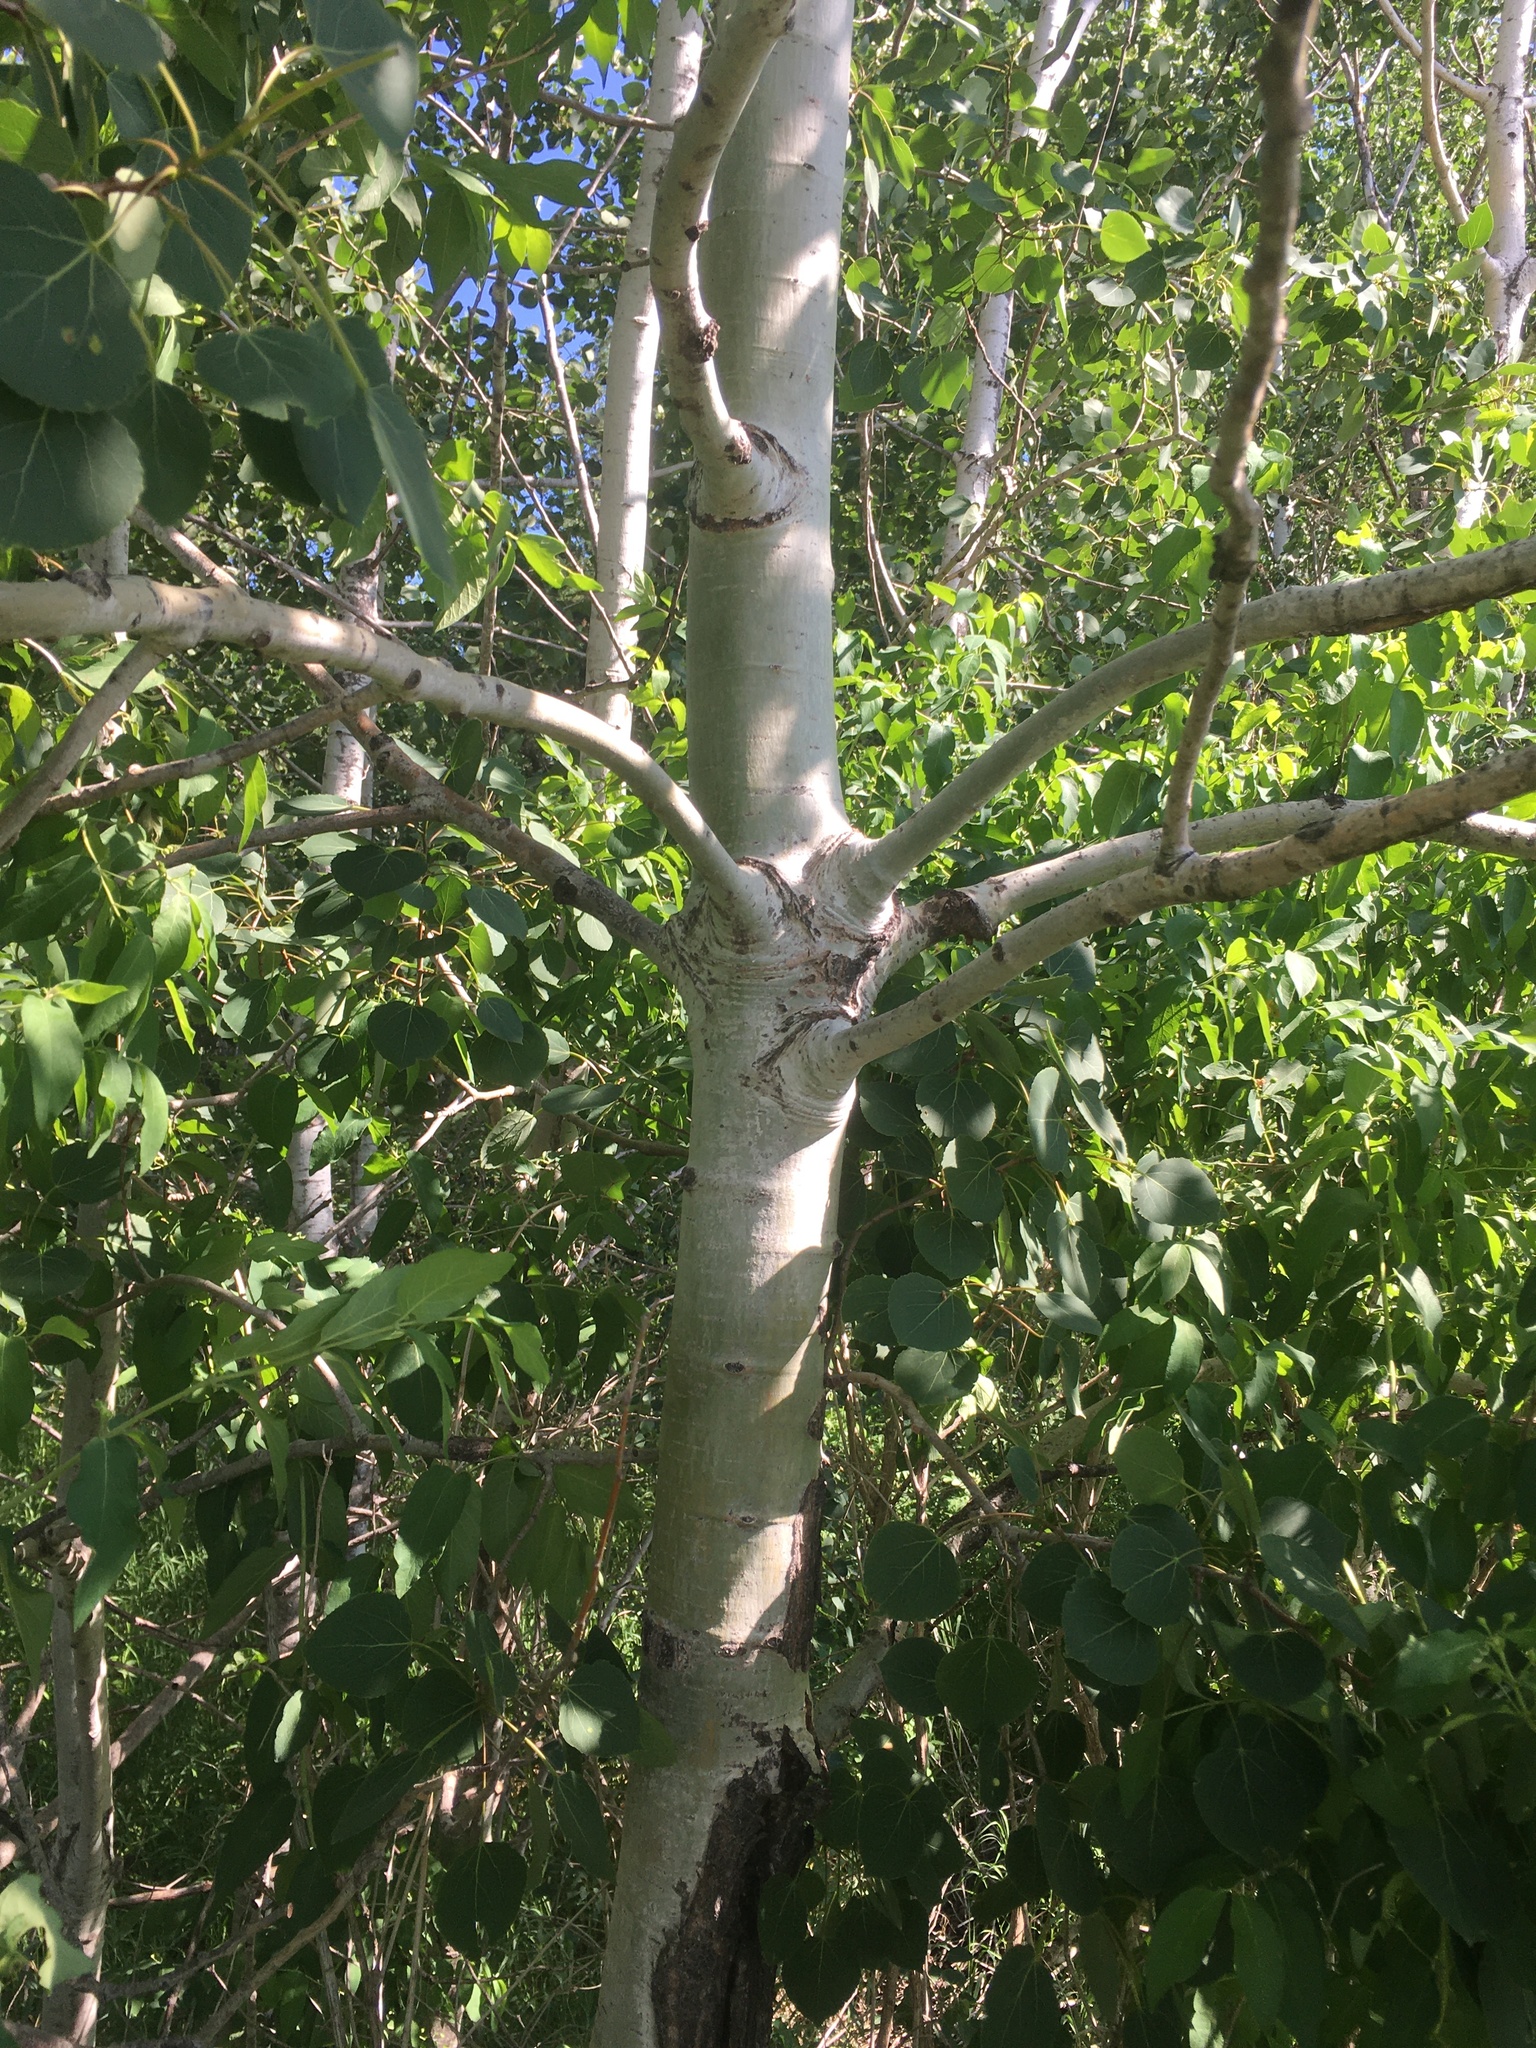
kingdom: Plantae
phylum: Tracheophyta
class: Magnoliopsida
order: Malpighiales
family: Salicaceae
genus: Populus
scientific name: Populus tremuloides
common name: Quaking aspen
